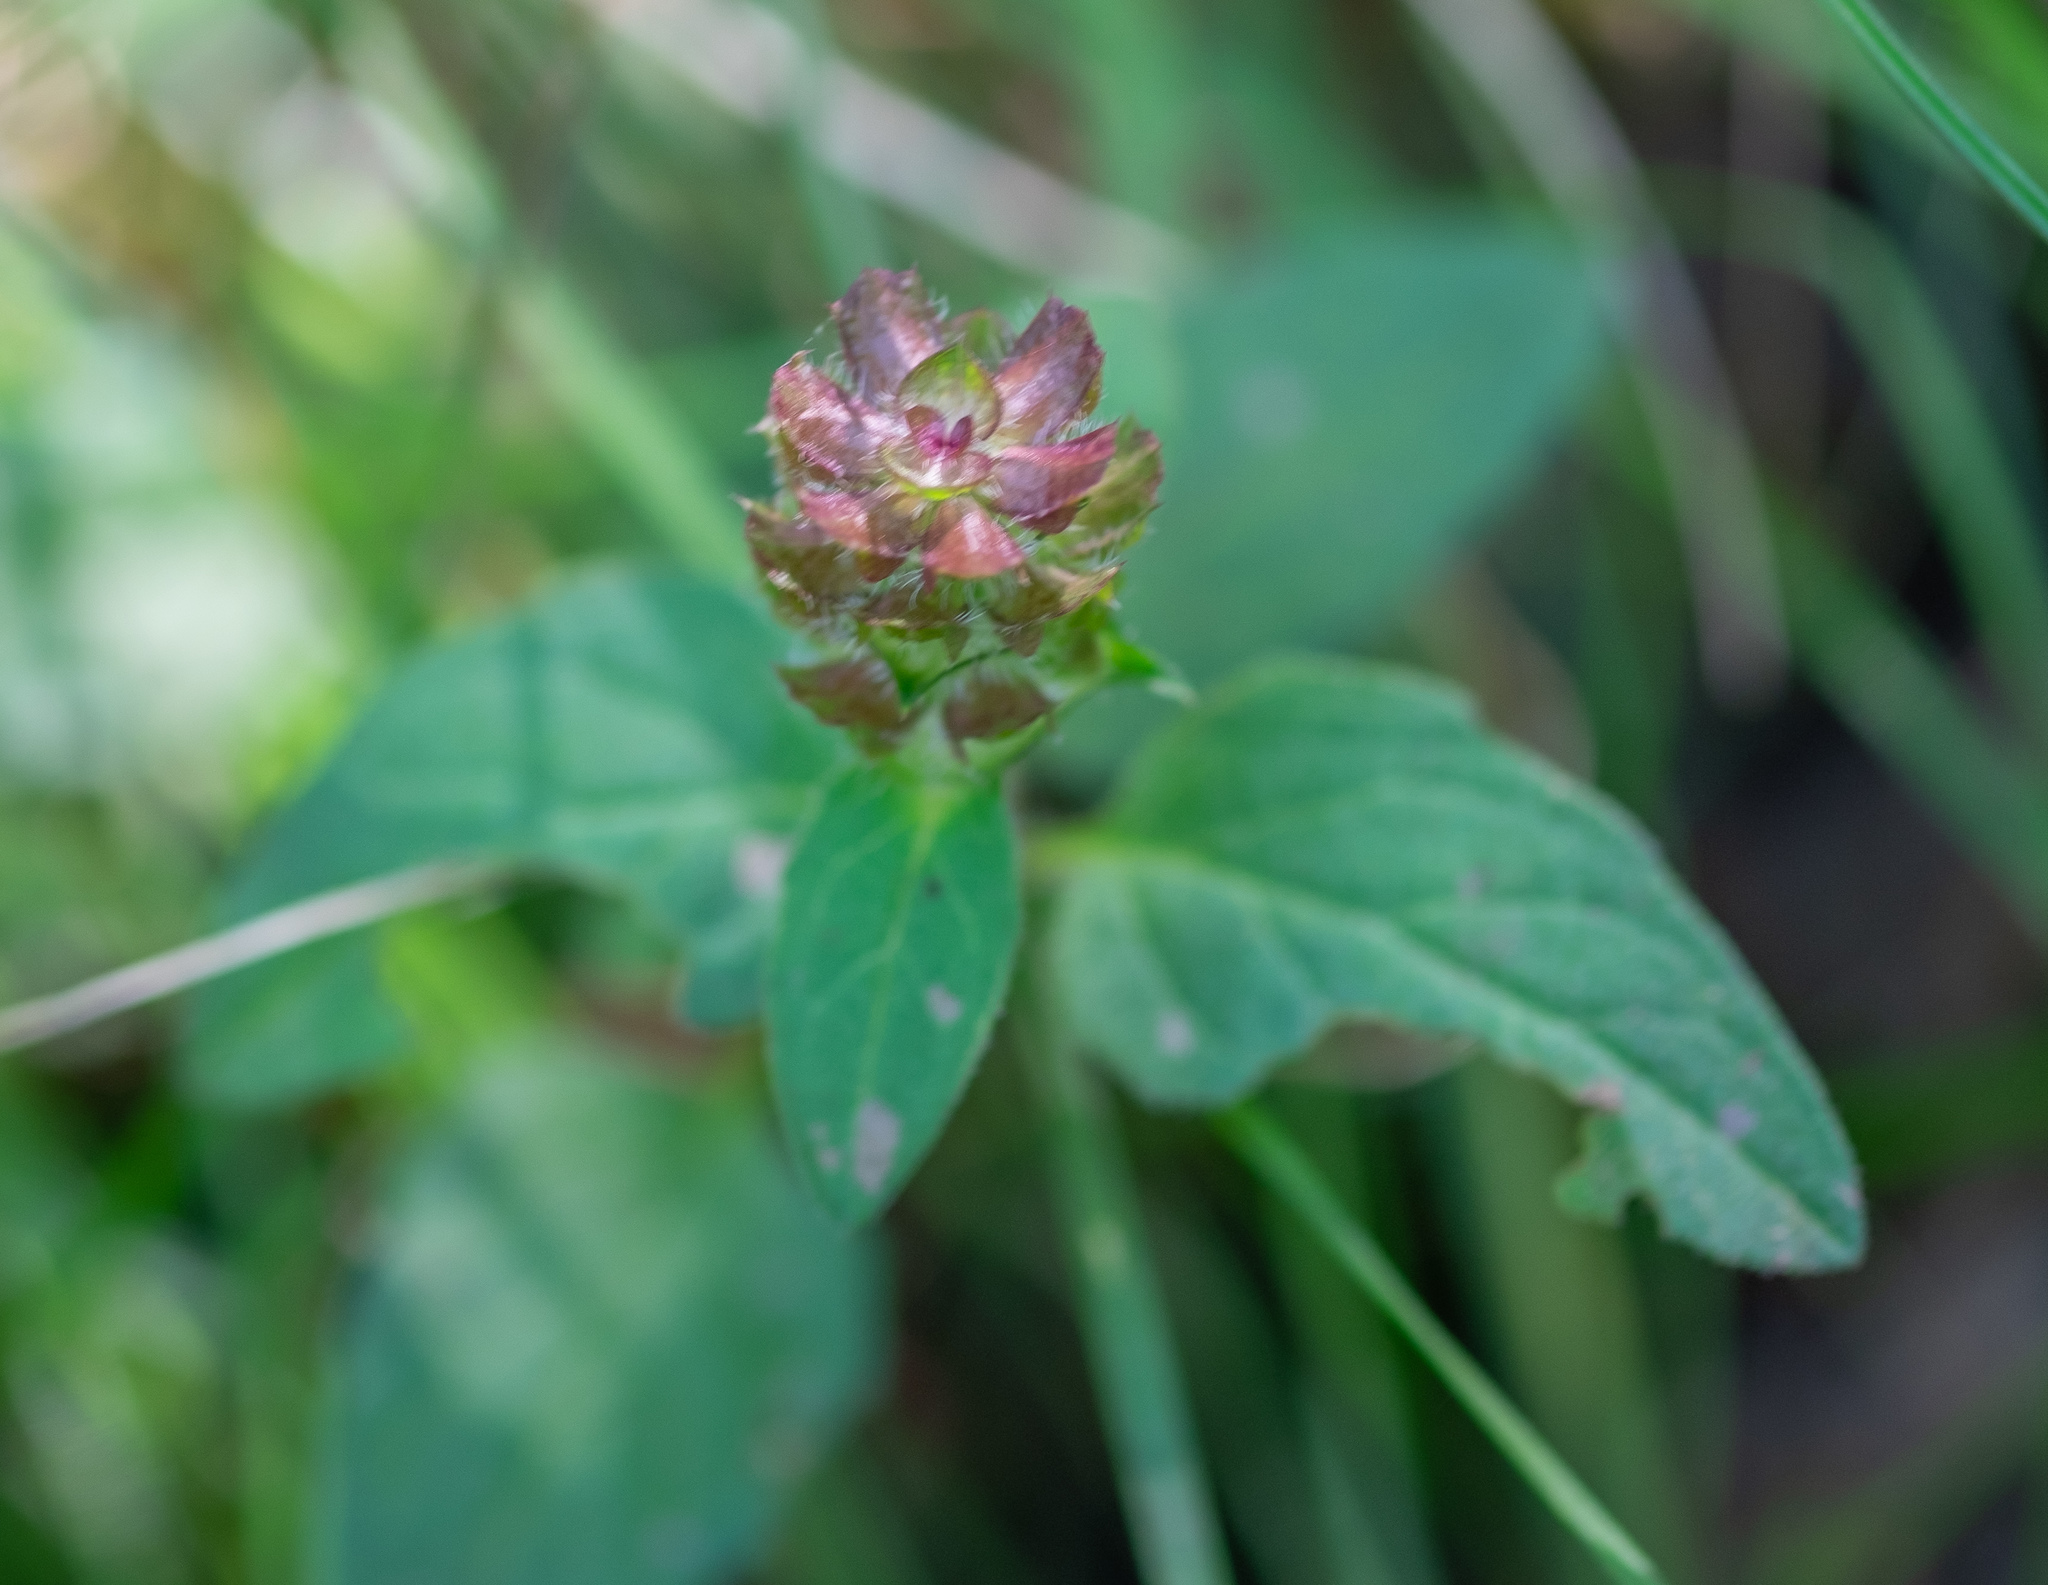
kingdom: Plantae
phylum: Tracheophyta
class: Magnoliopsida
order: Lamiales
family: Lamiaceae
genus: Prunella
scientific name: Prunella vulgaris
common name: Heal-all
